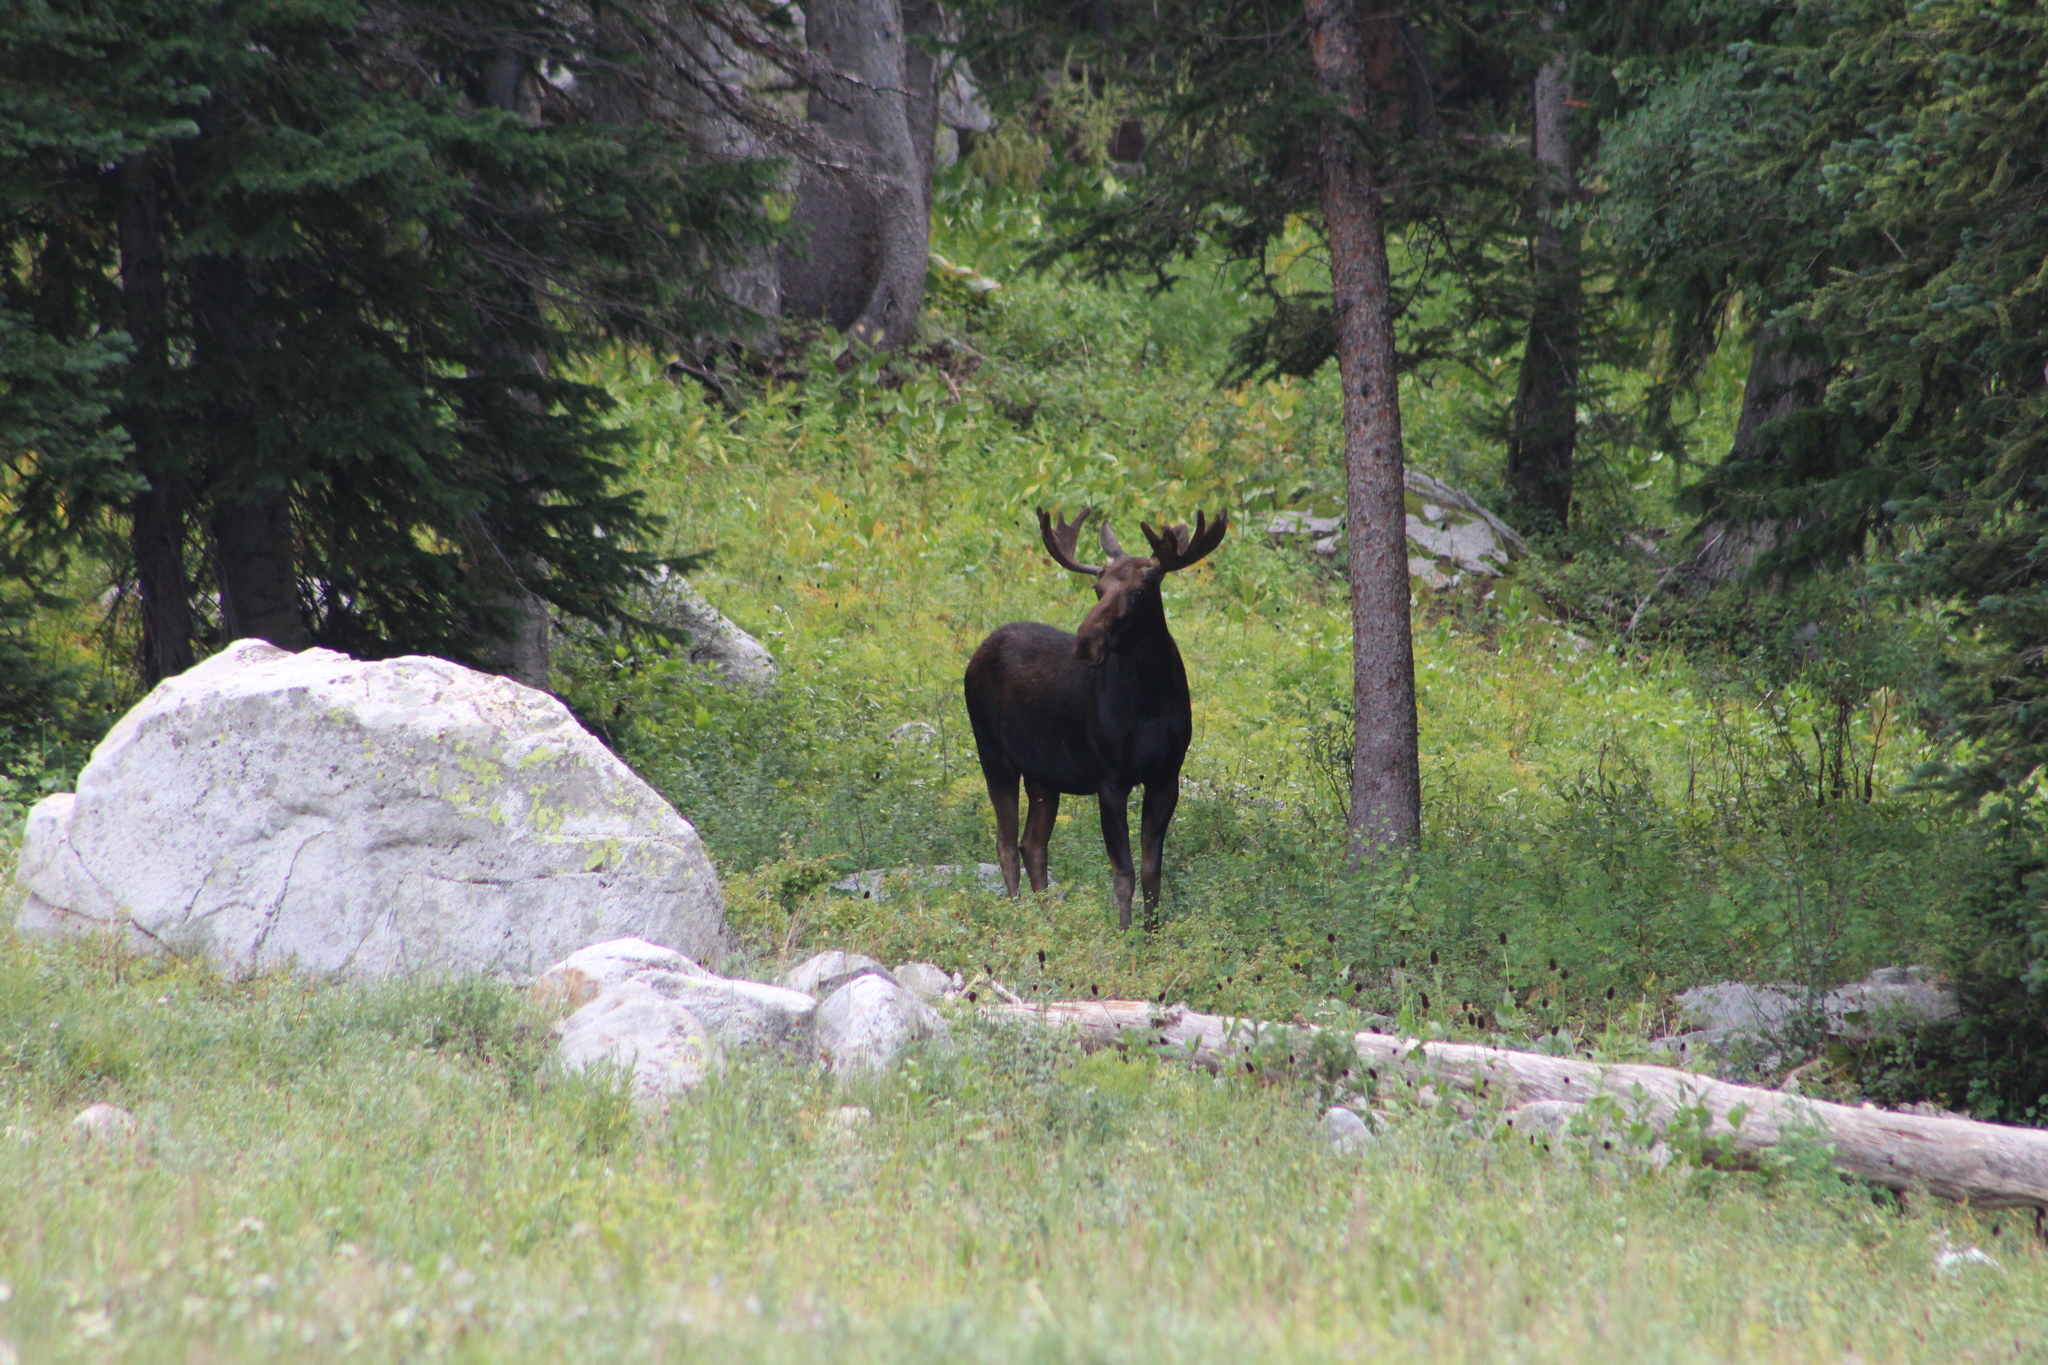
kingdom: Animalia
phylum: Chordata
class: Mammalia
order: Artiodactyla
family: Cervidae
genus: Alces
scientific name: Alces americanus
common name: Moose
